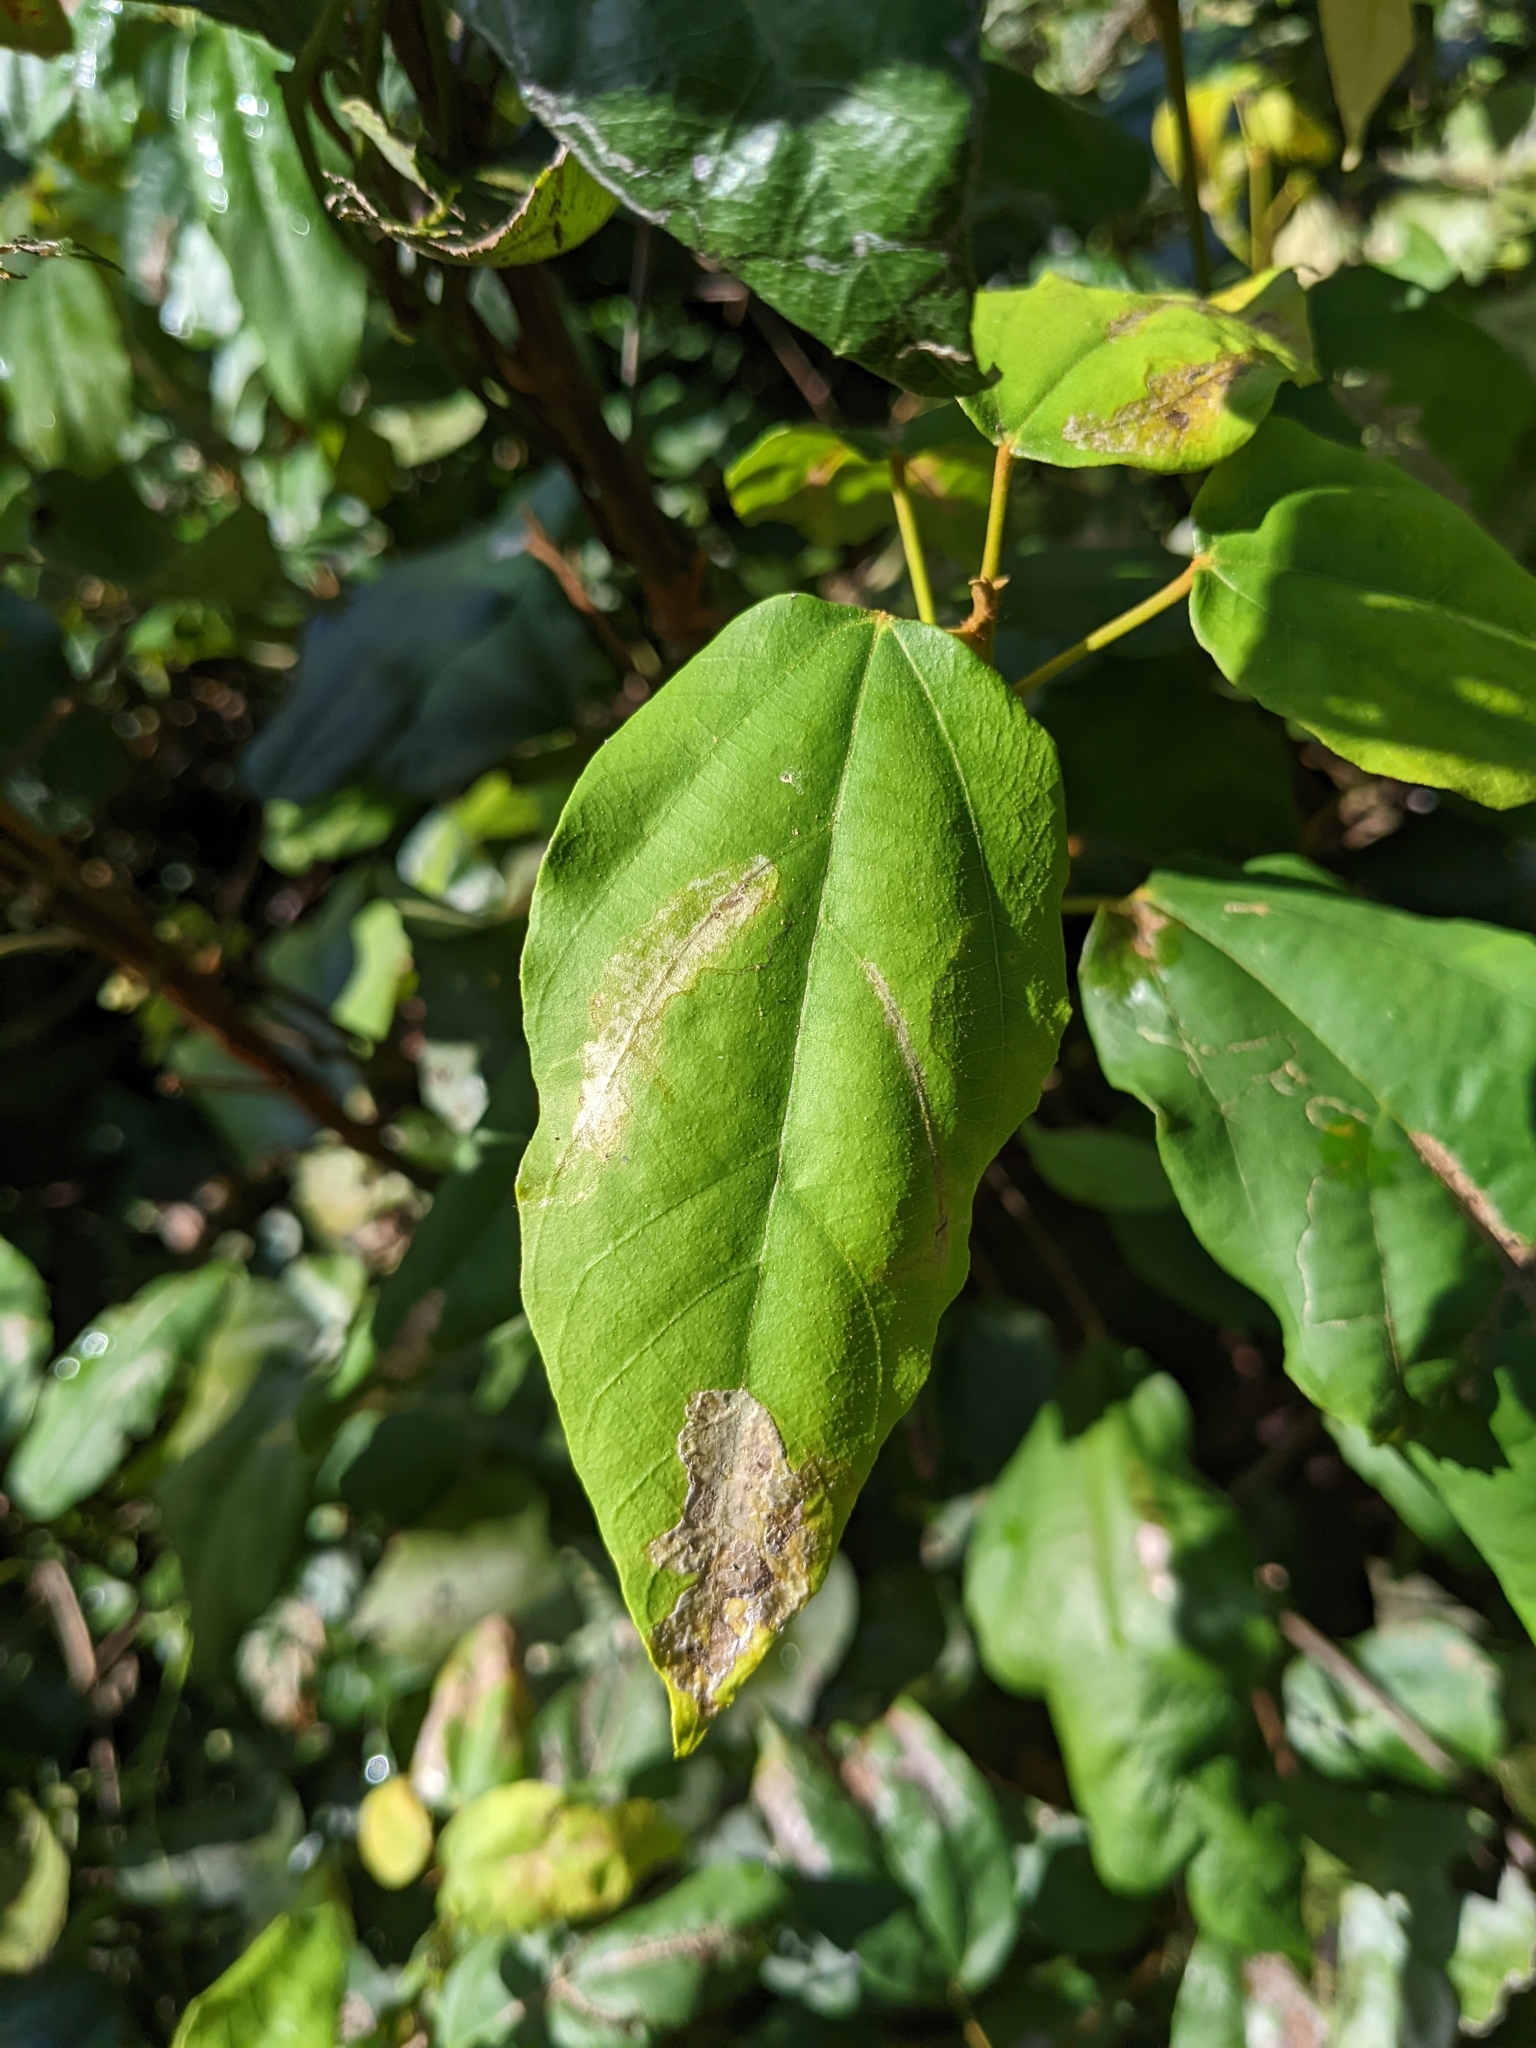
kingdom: Plantae
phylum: Tracheophyta
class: Magnoliopsida
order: Malpighiales
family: Euphorbiaceae
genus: Mallotus
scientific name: Mallotus philippensis
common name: Kamala tree
